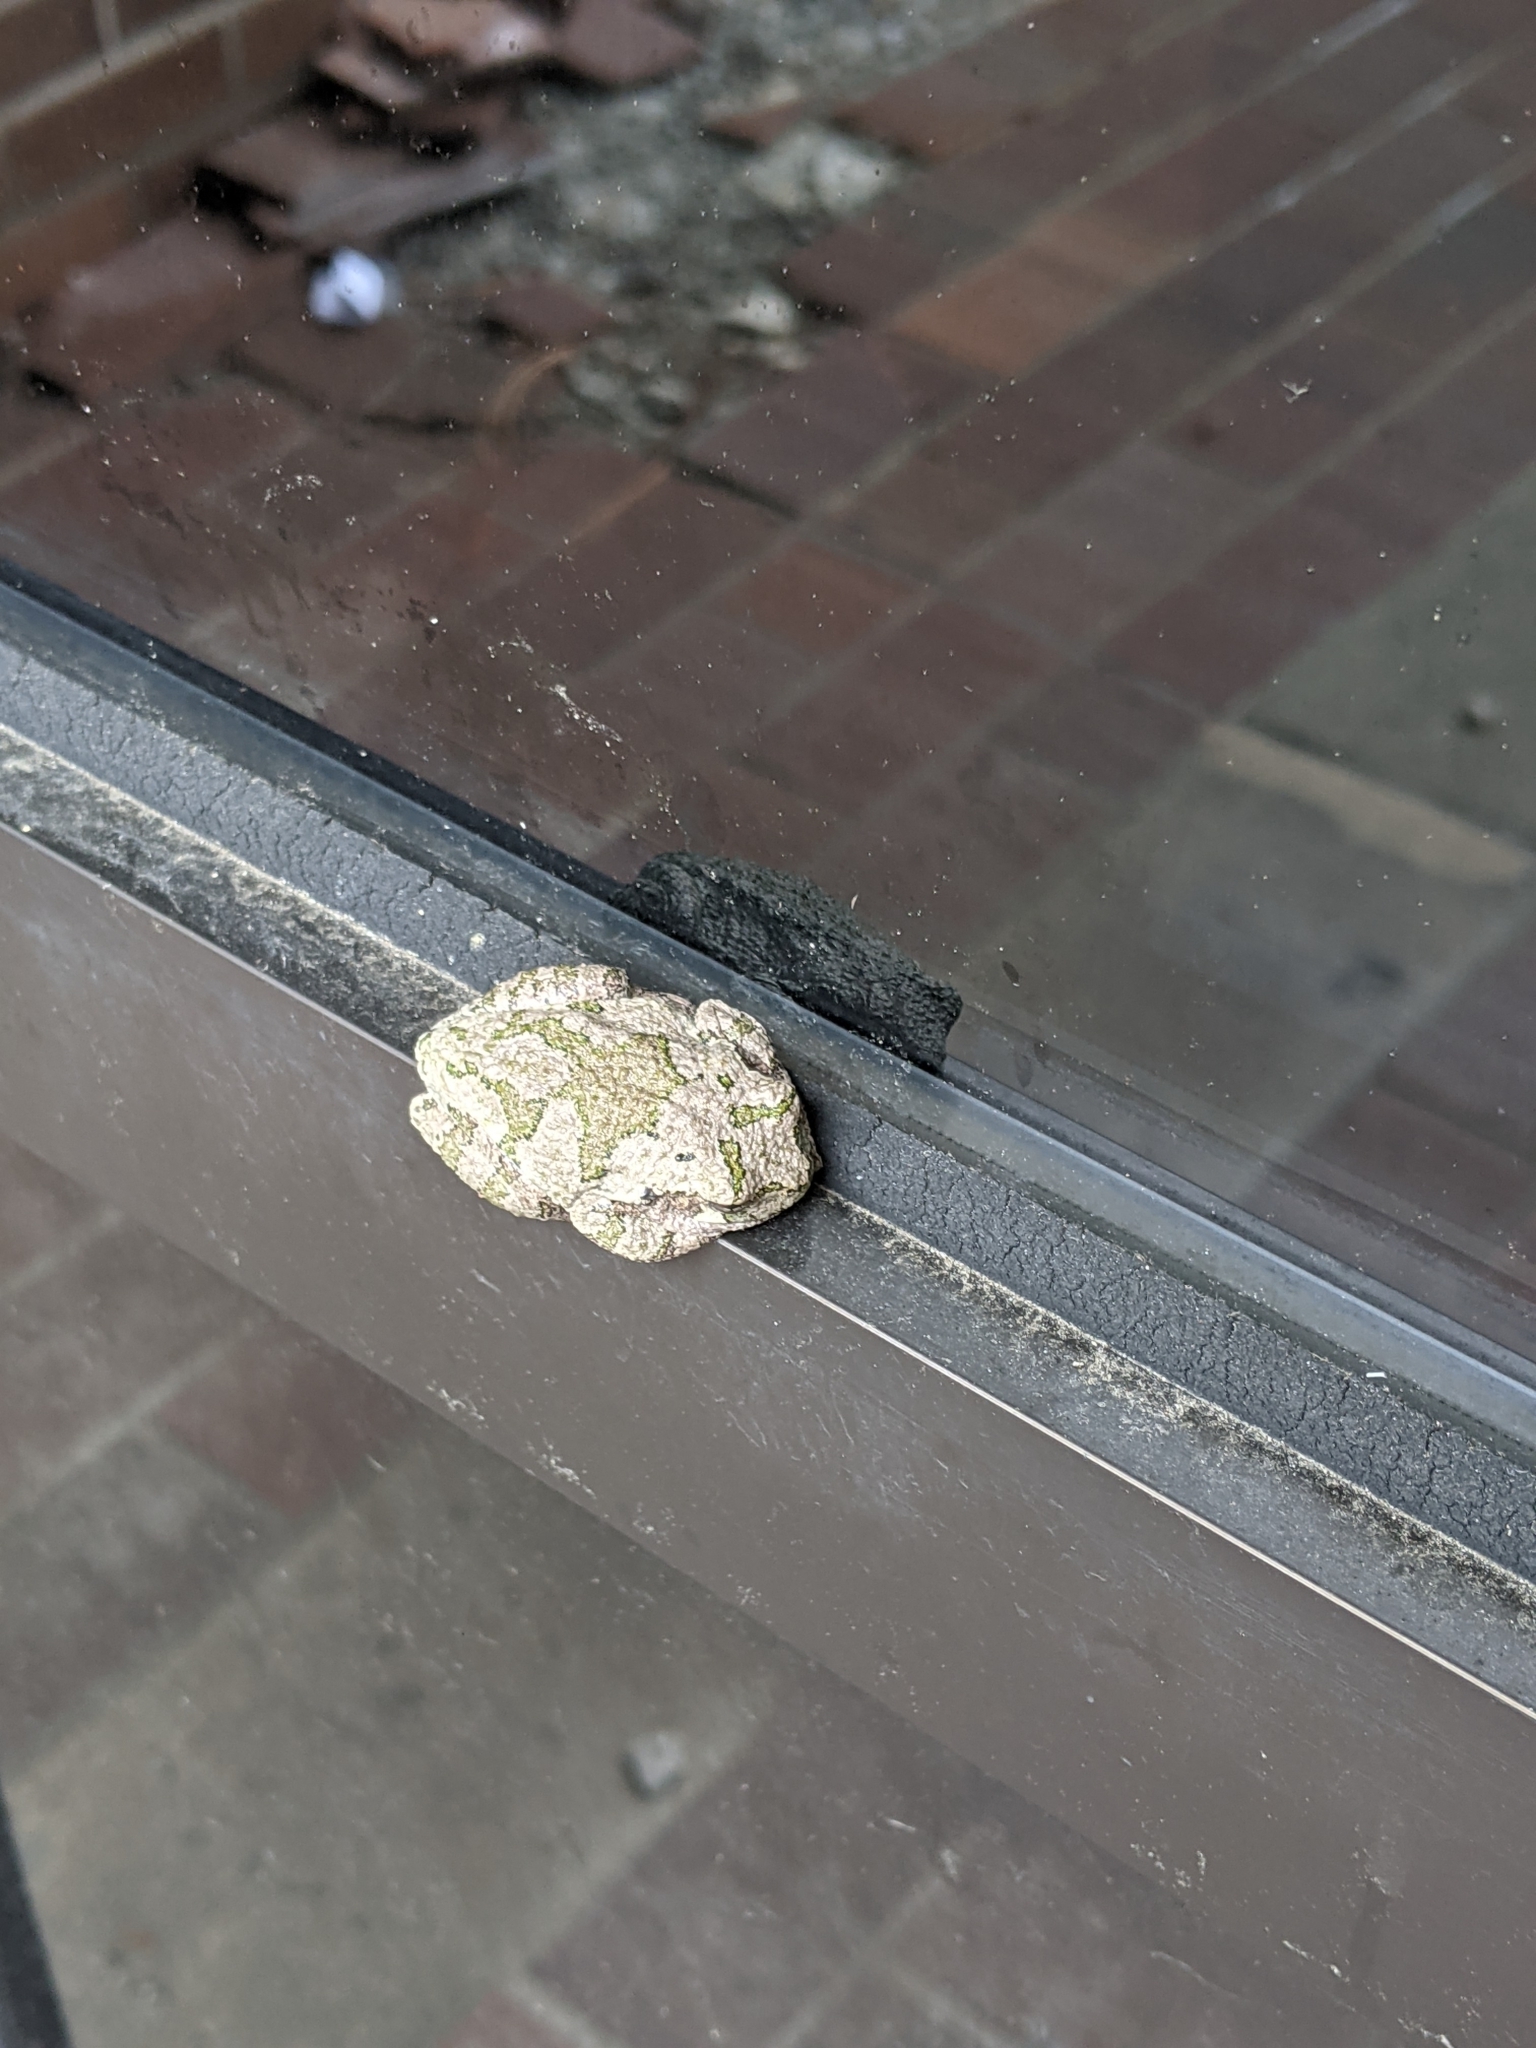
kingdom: Animalia
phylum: Chordata
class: Amphibia
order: Anura
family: Hylidae
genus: Dryophytes
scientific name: Dryophytes versicolor
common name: Gray treefrog
